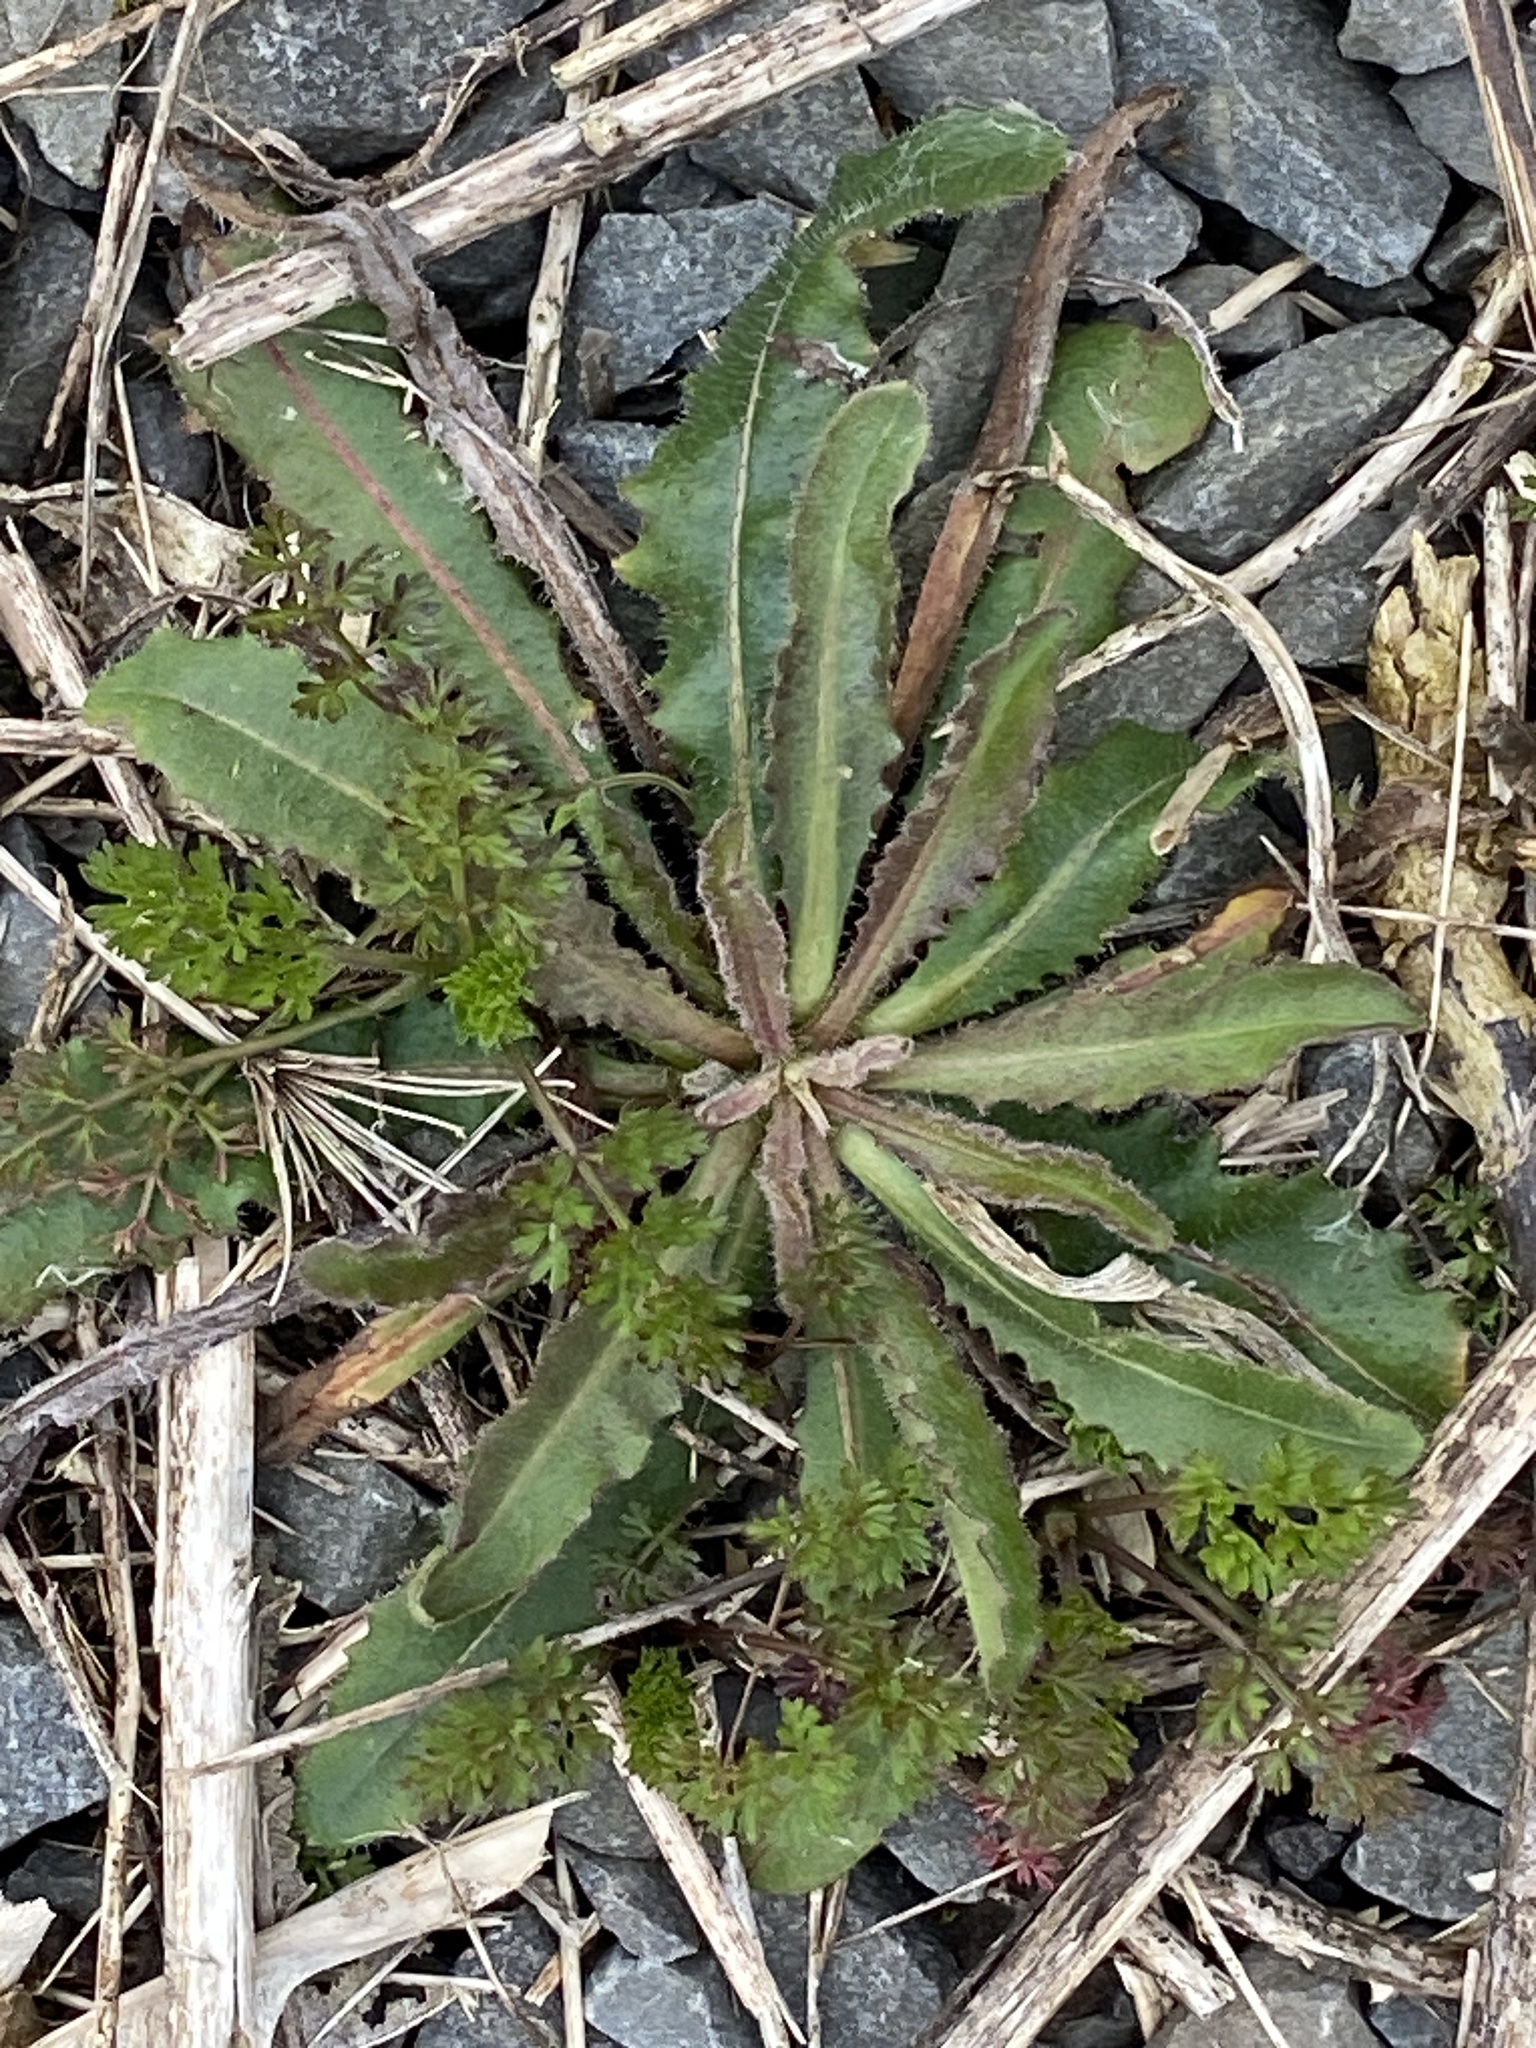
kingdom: Plantae
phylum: Tracheophyta
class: Magnoliopsida
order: Asterales
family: Asteraceae
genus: Picris
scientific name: Picris hieracioides
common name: Hawkweed oxtongue
